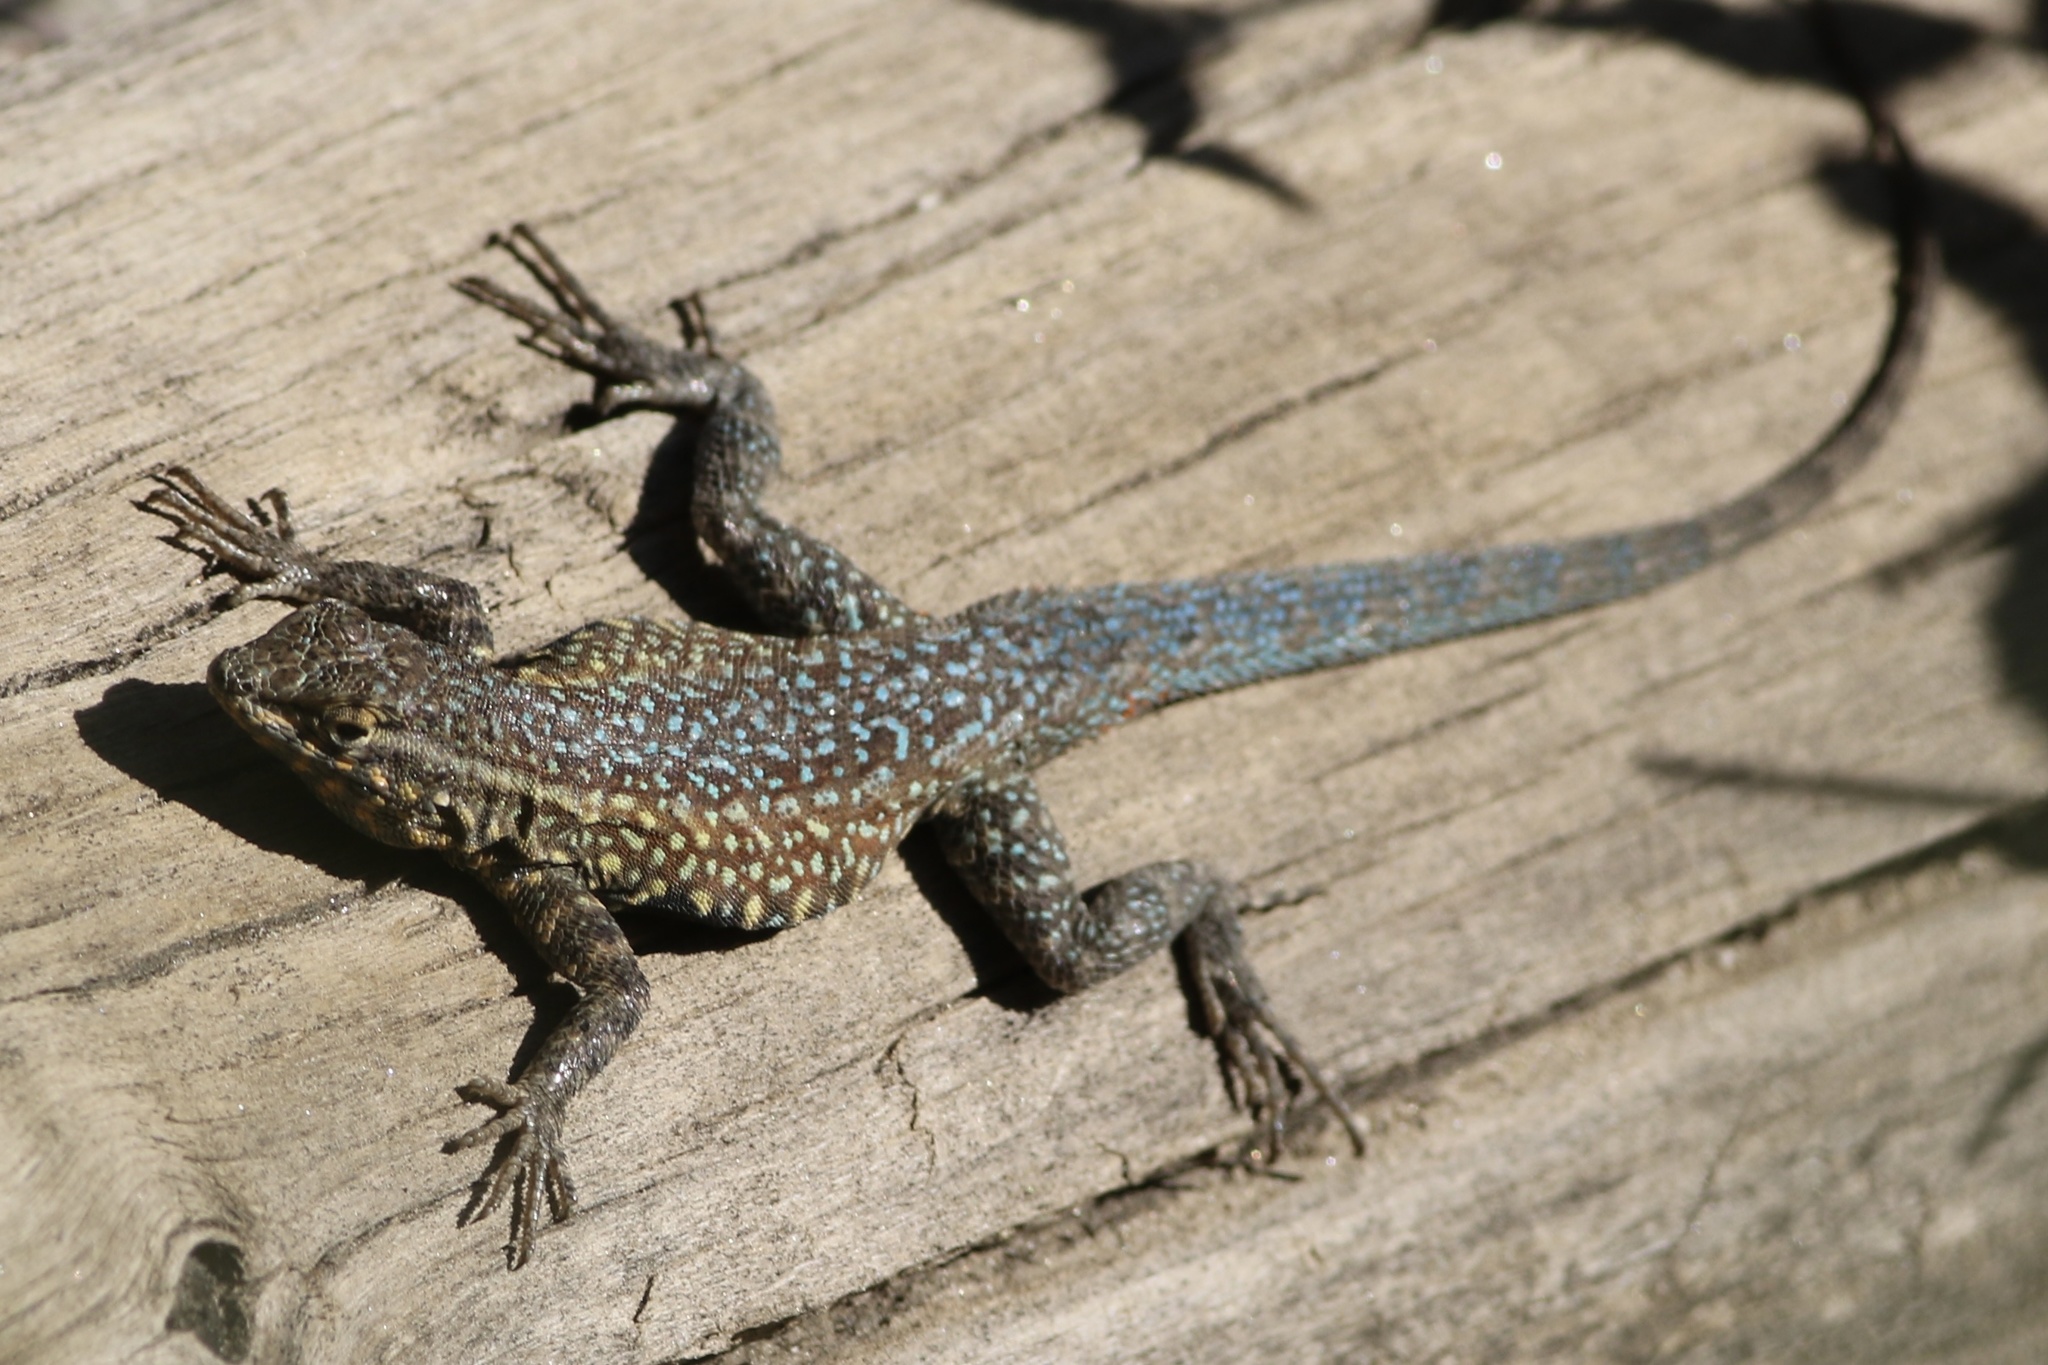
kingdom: Animalia
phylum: Chordata
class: Squamata
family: Phrynosomatidae
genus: Uta
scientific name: Uta stansburiana
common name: Side-blotched lizard
